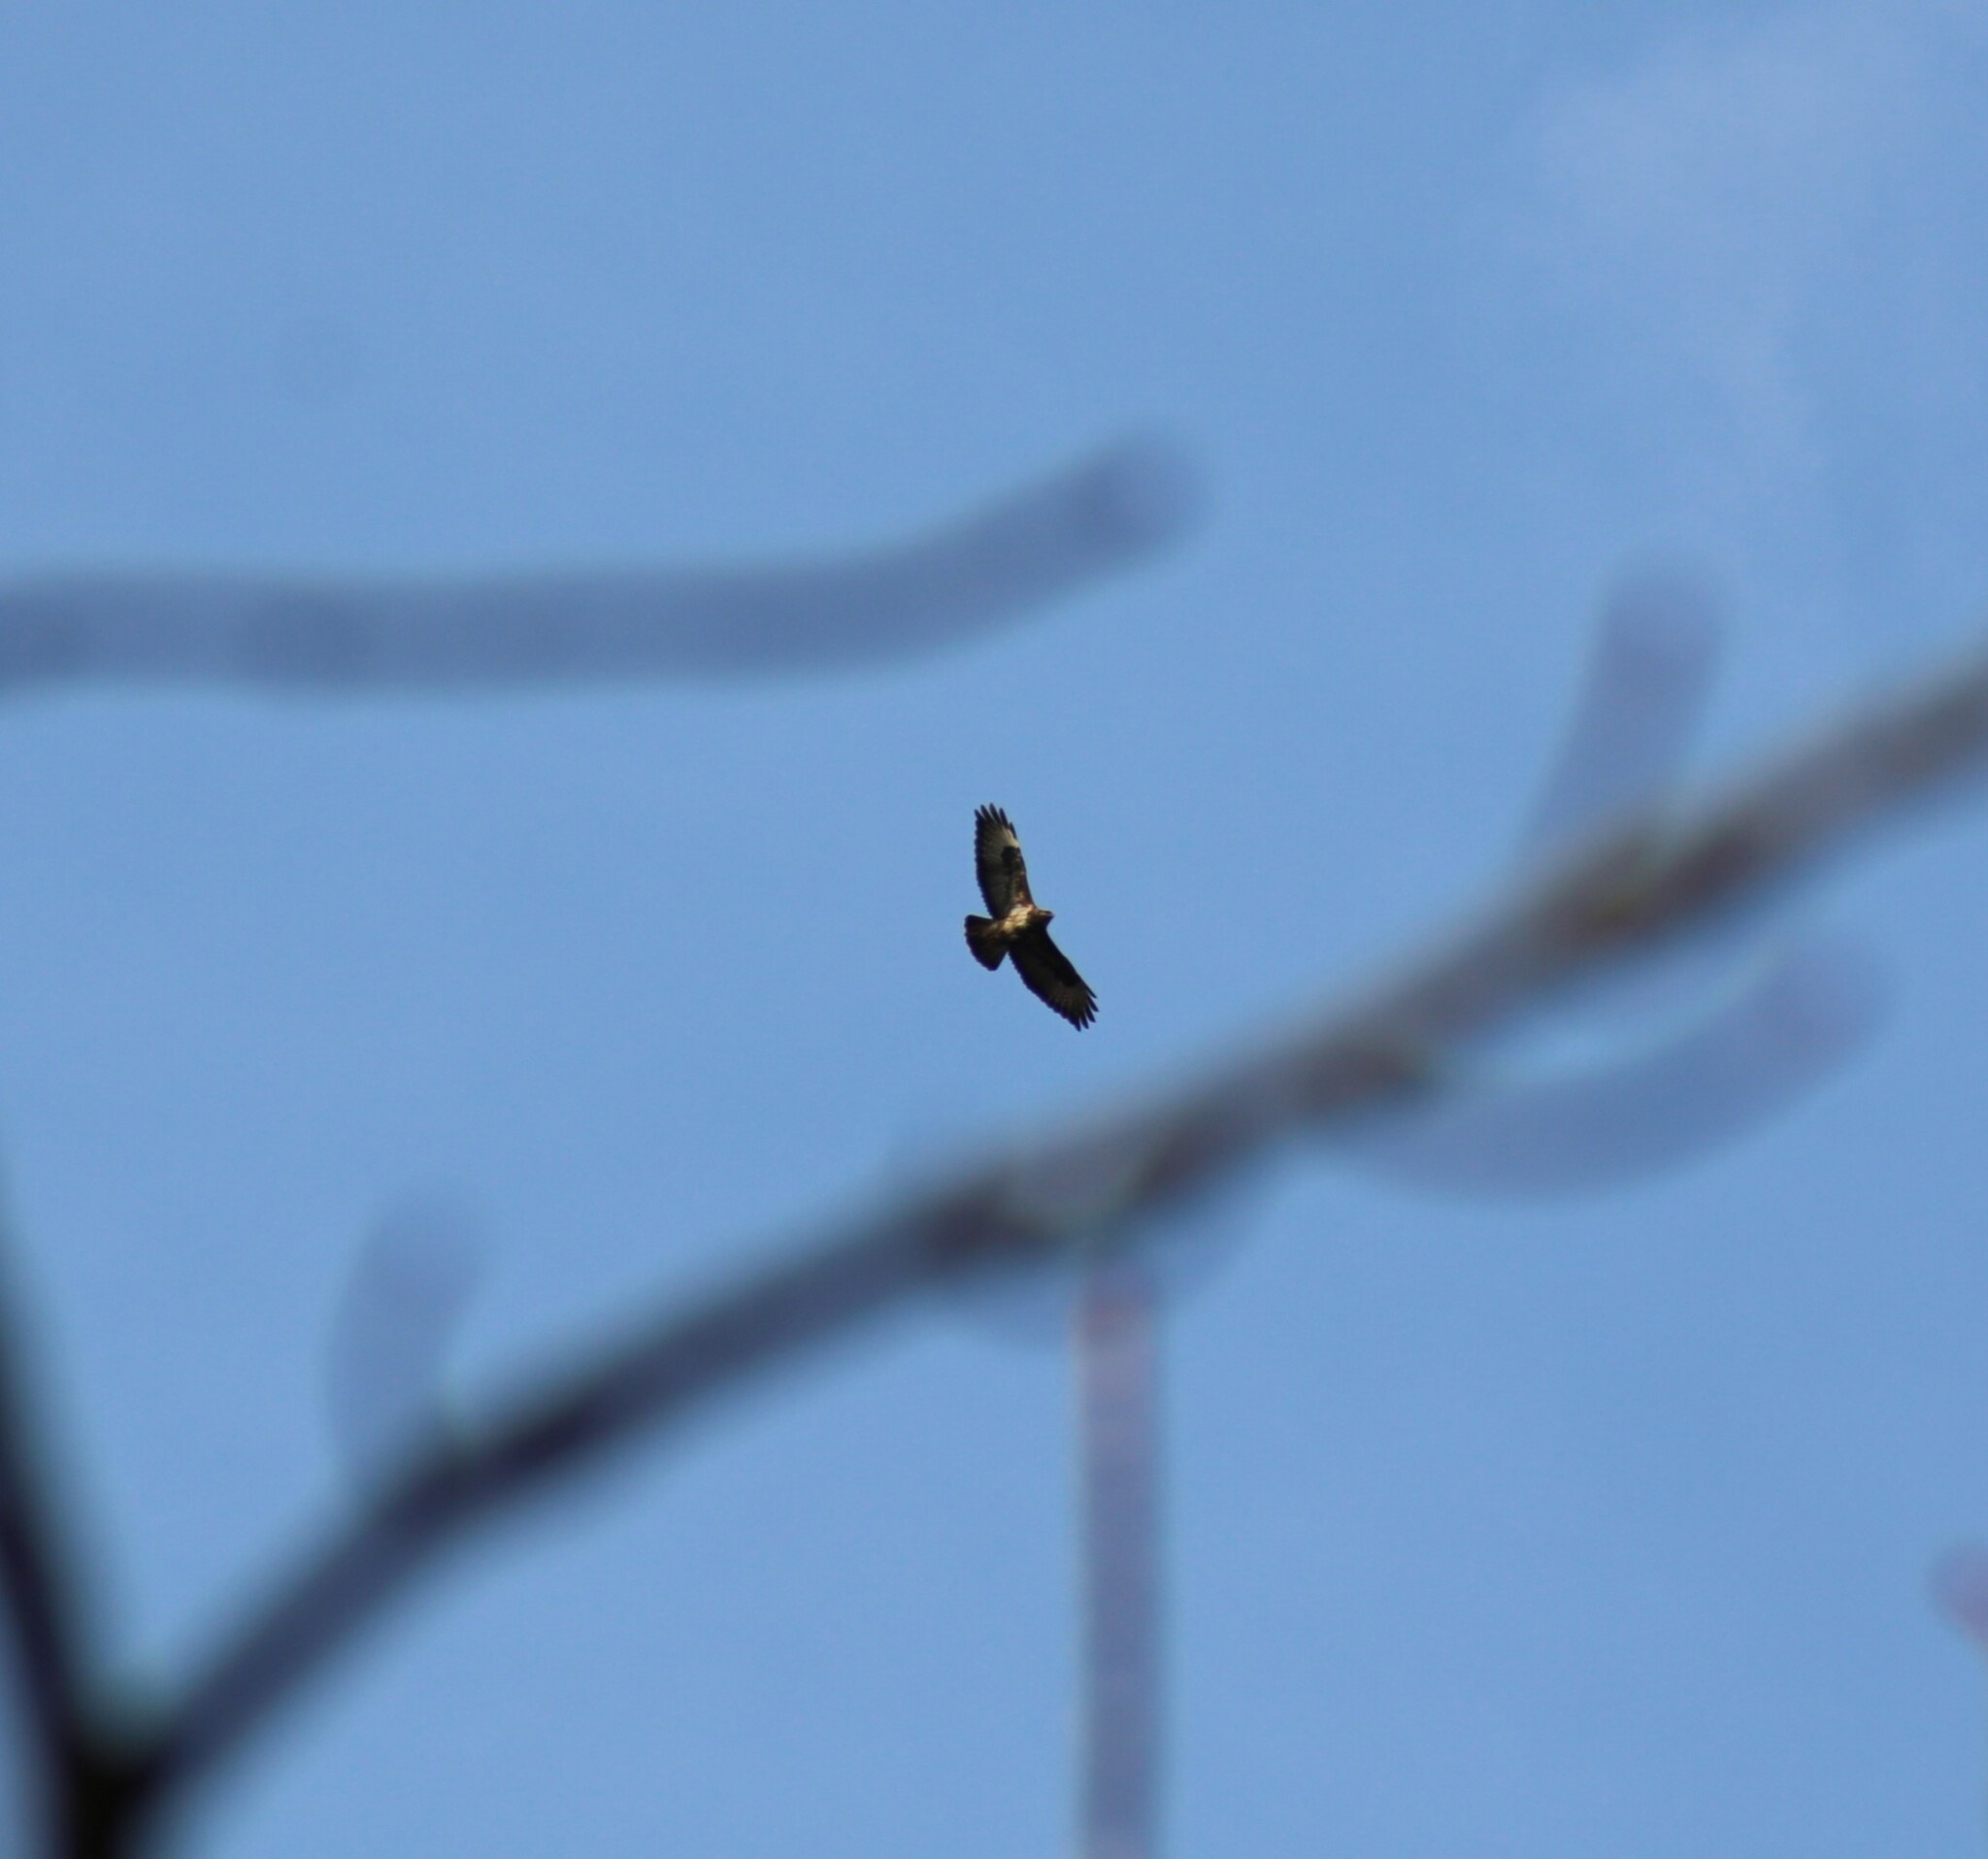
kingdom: Animalia
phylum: Chordata
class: Aves
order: Accipitriformes
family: Accipitridae
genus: Buteo
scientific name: Buteo buteo
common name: Common buzzard
